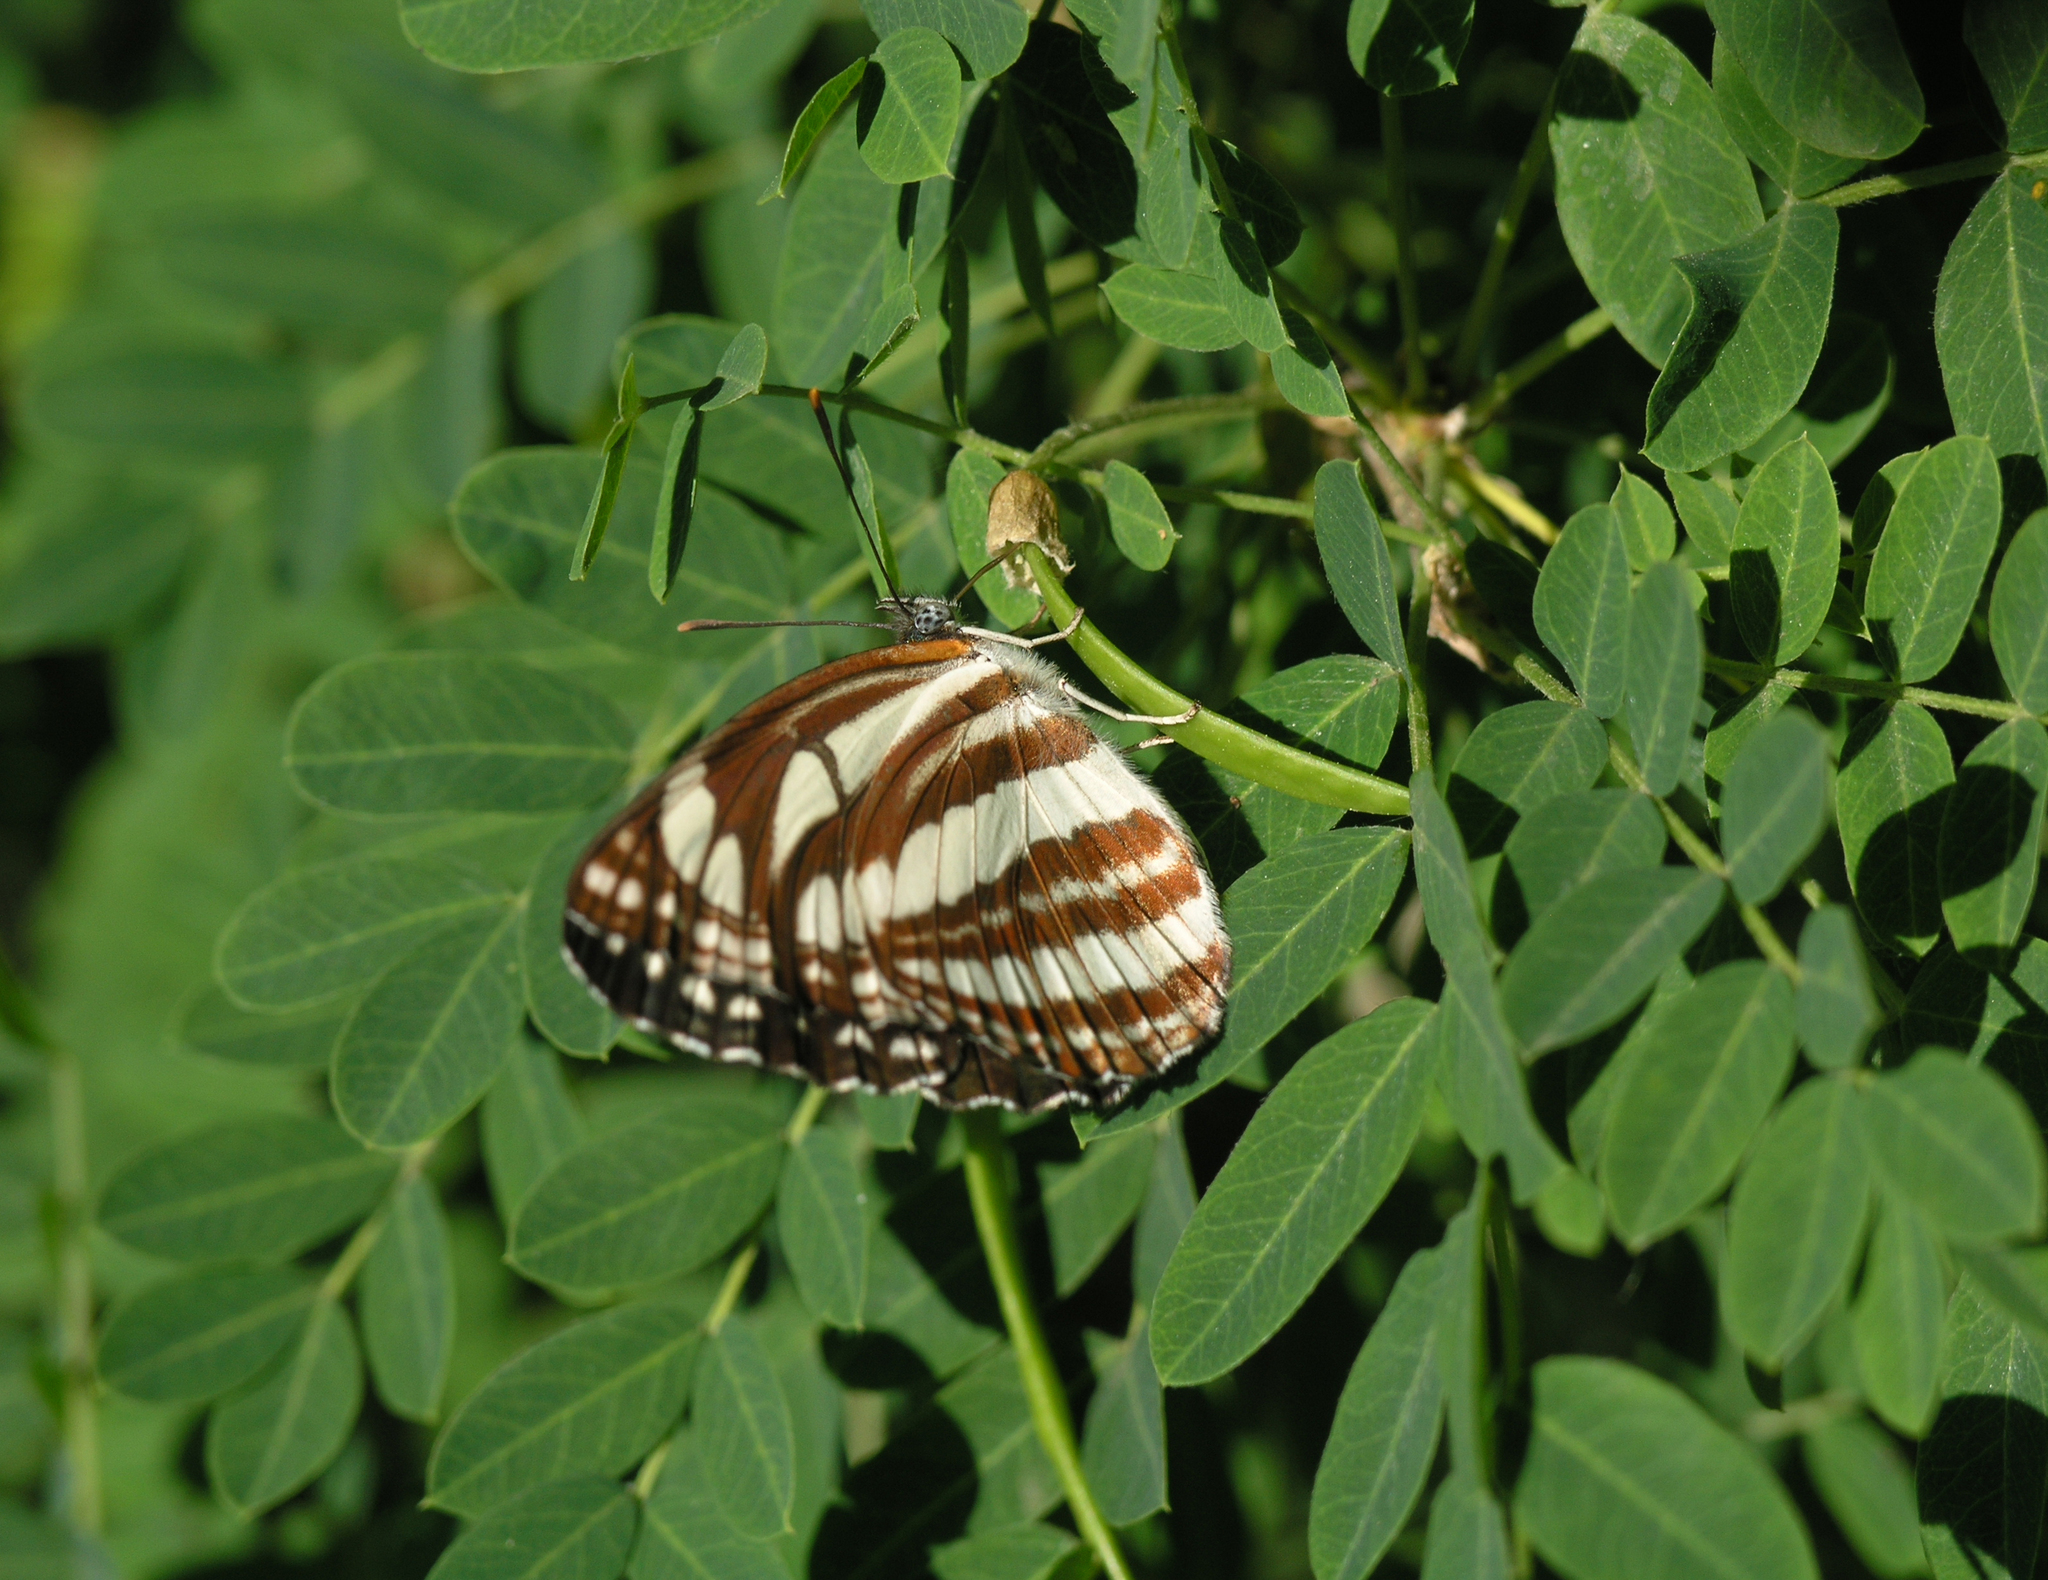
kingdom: Animalia
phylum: Arthropoda
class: Insecta
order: Lepidoptera
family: Nymphalidae
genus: Neptis
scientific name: Neptis sappho
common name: Common glider
